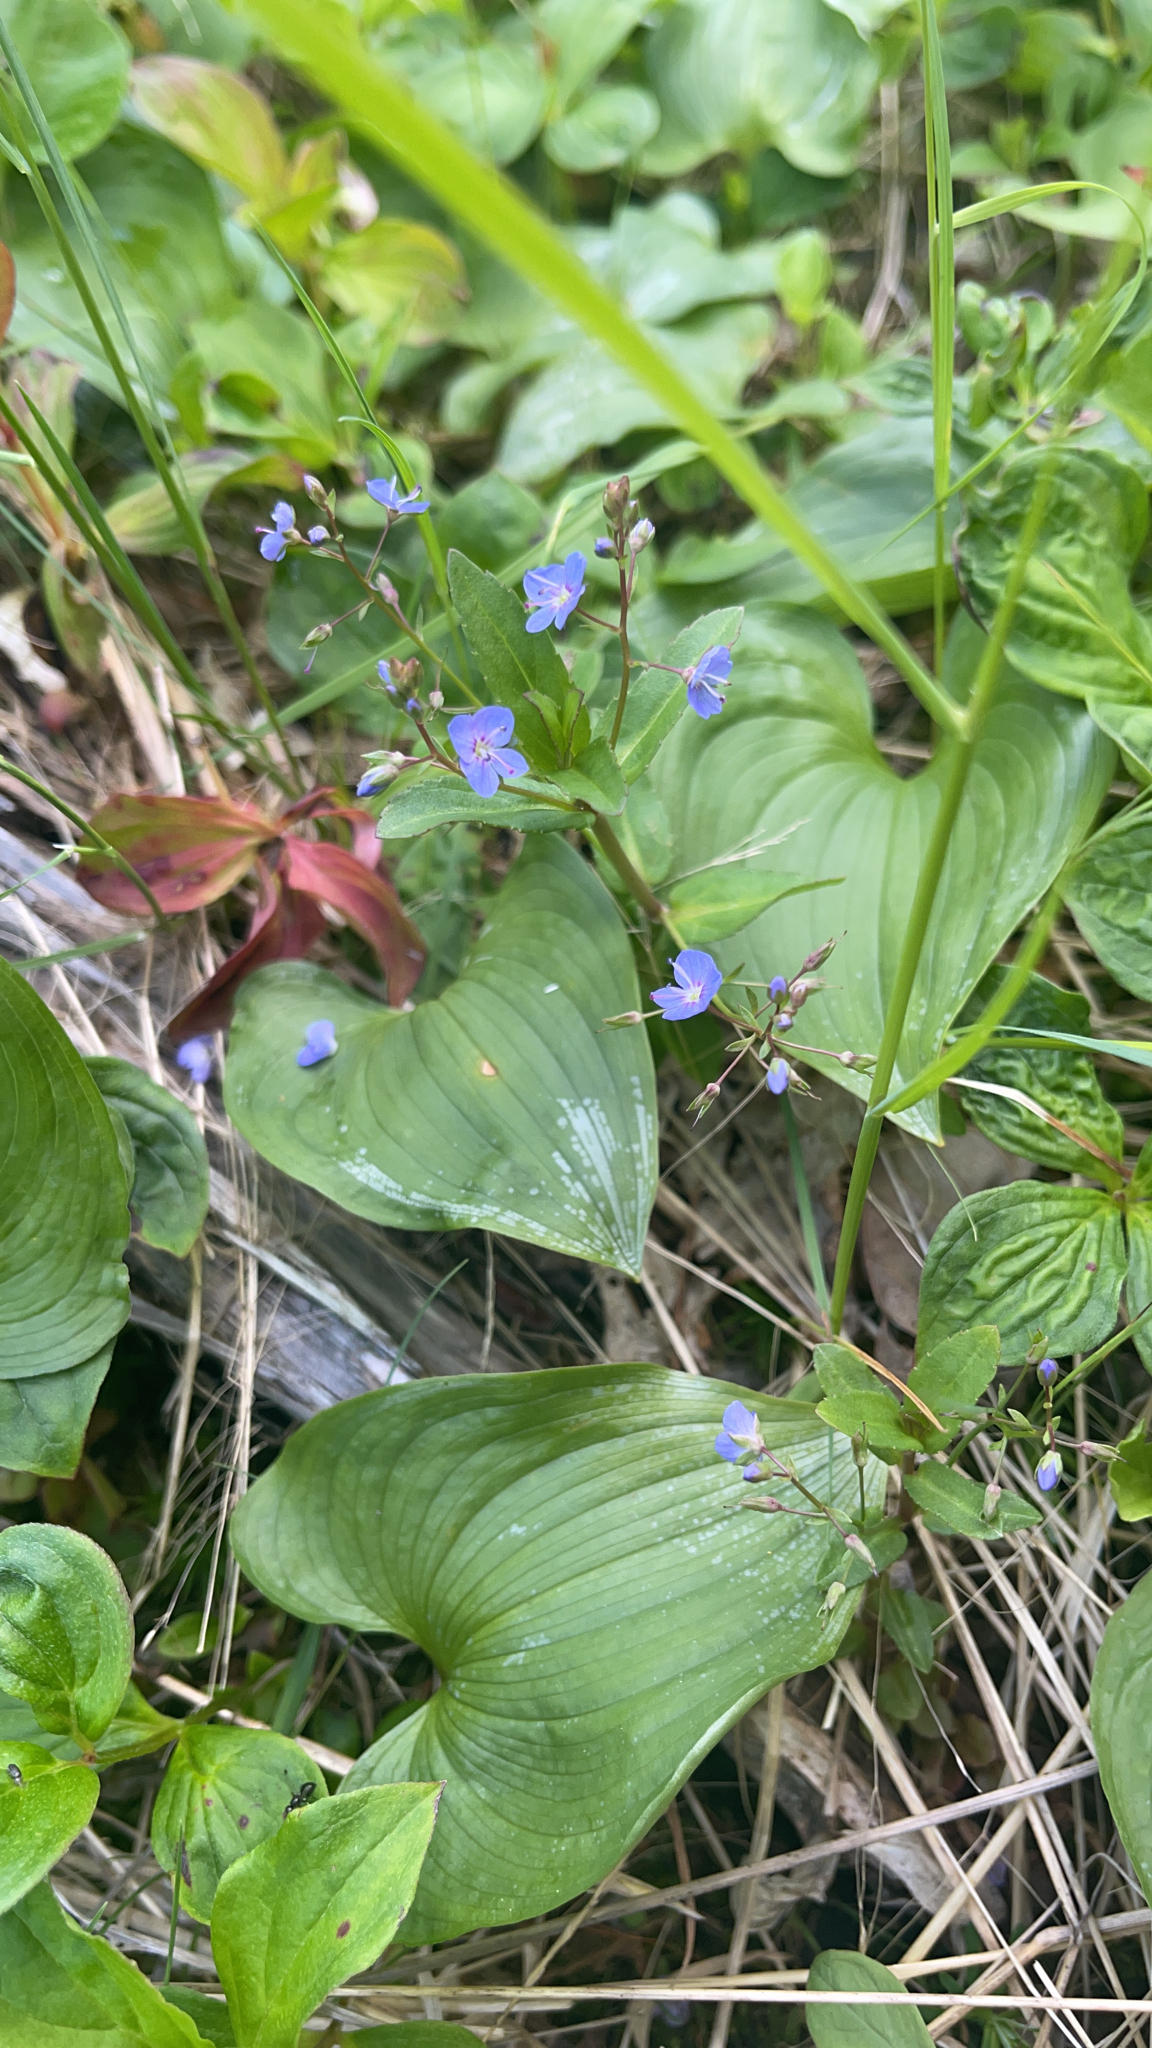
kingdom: Plantae
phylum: Tracheophyta
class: Magnoliopsida
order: Lamiales
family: Plantaginaceae
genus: Veronica
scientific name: Veronica americana
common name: American brooklime
